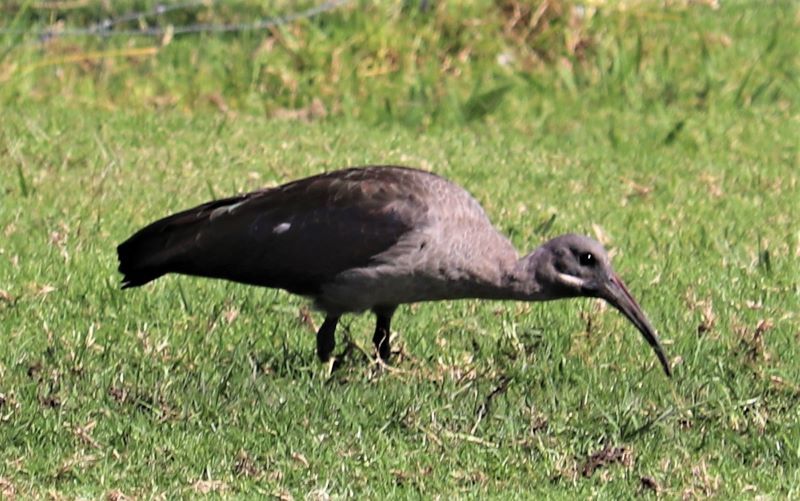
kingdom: Animalia
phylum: Chordata
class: Aves
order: Pelecaniformes
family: Threskiornithidae
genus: Bostrychia
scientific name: Bostrychia hagedash
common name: Hadada ibis
